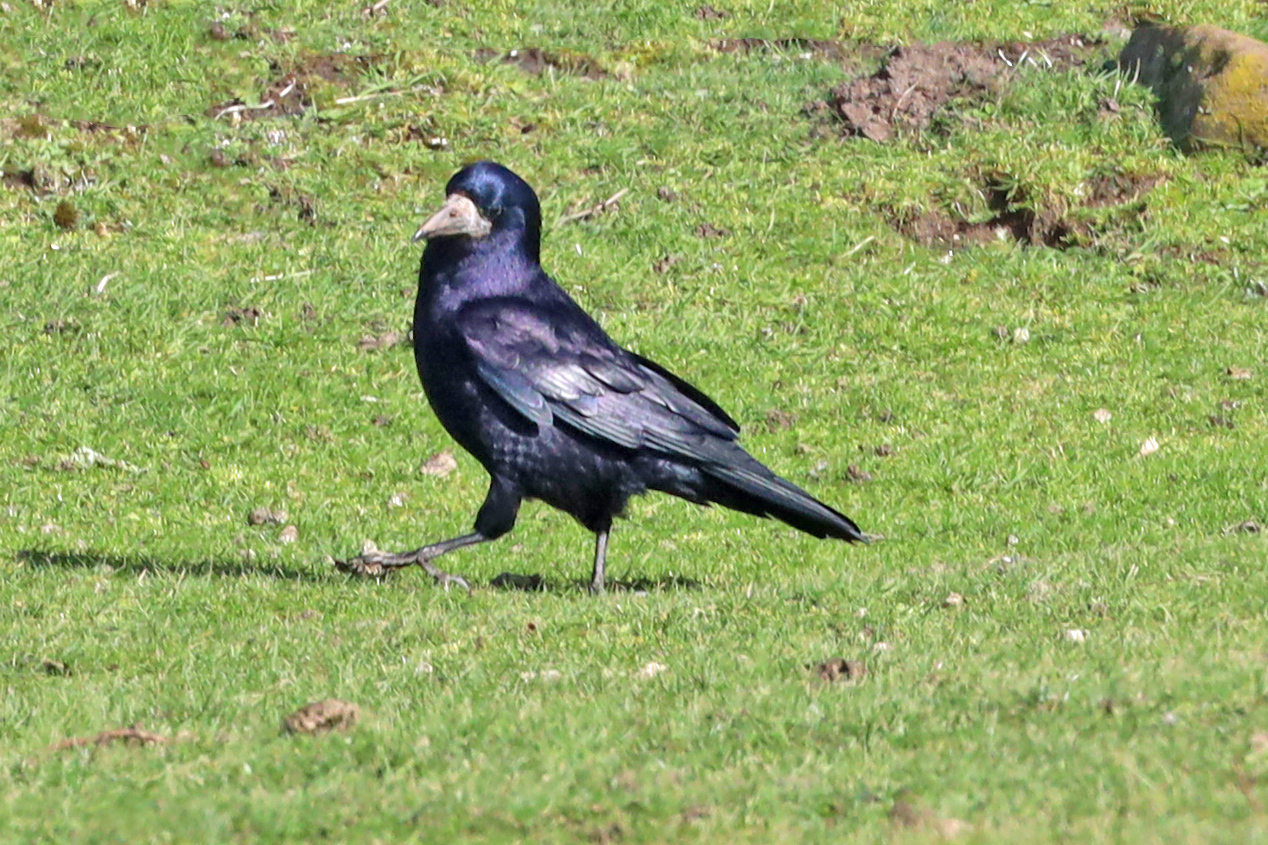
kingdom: Animalia
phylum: Chordata
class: Aves
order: Passeriformes
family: Corvidae
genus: Corvus
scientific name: Corvus frugilegus
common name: Rook
